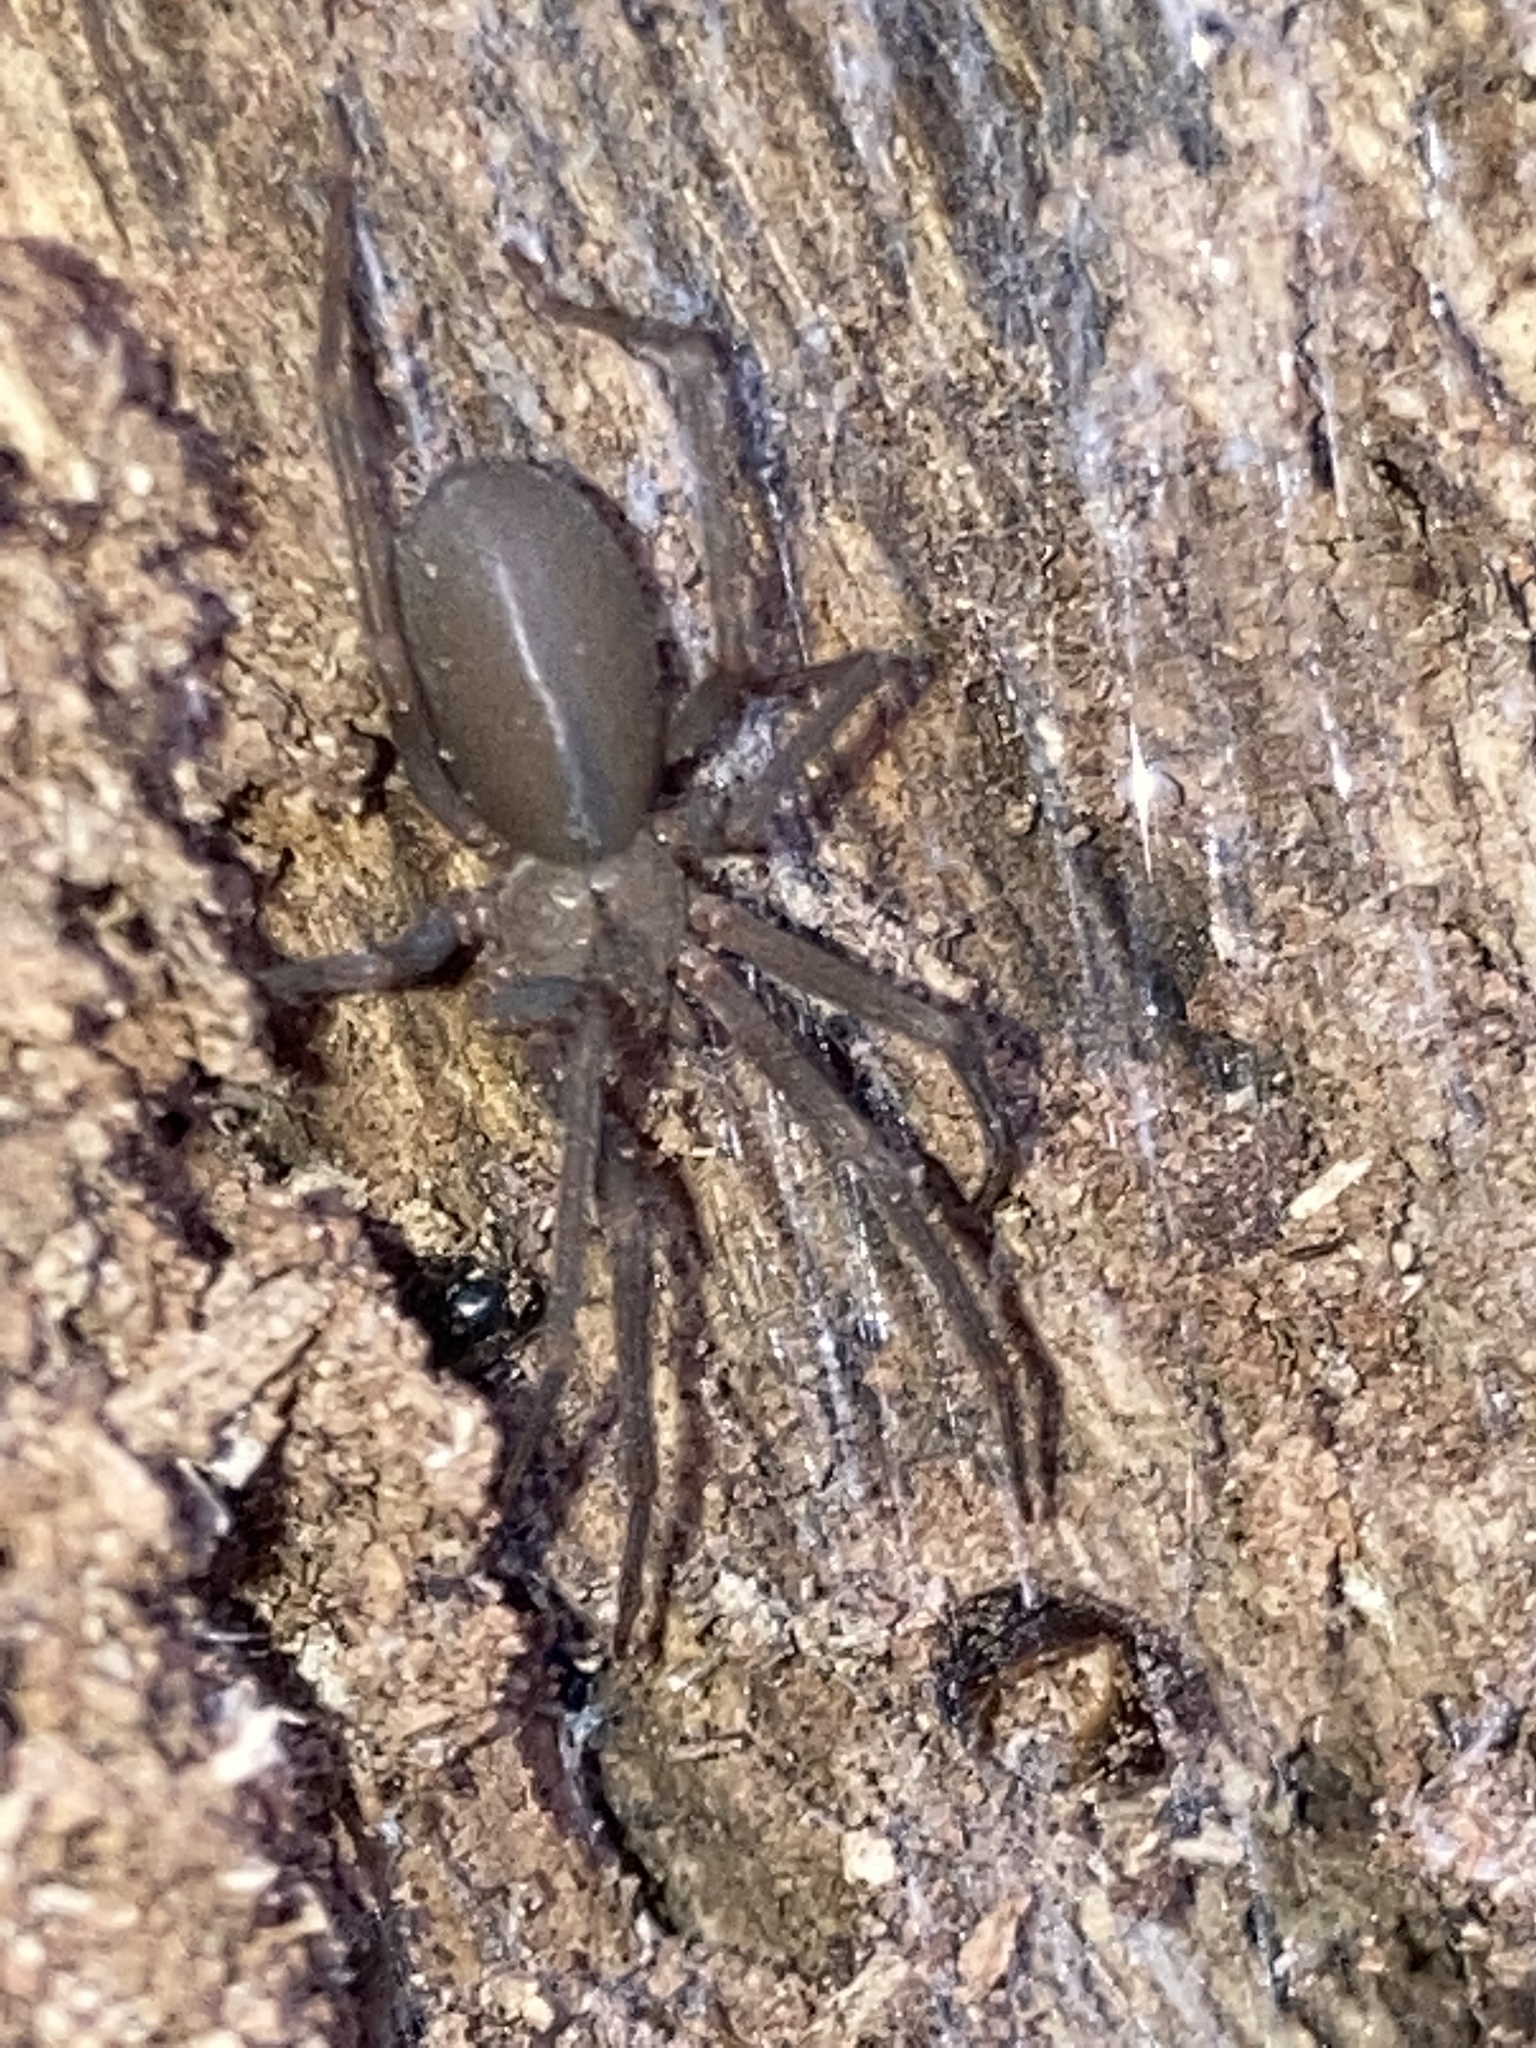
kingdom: Animalia
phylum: Arthropoda
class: Arachnida
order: Araneae
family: Sicariidae
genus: Loxosceles
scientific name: Loxosceles reclusa
